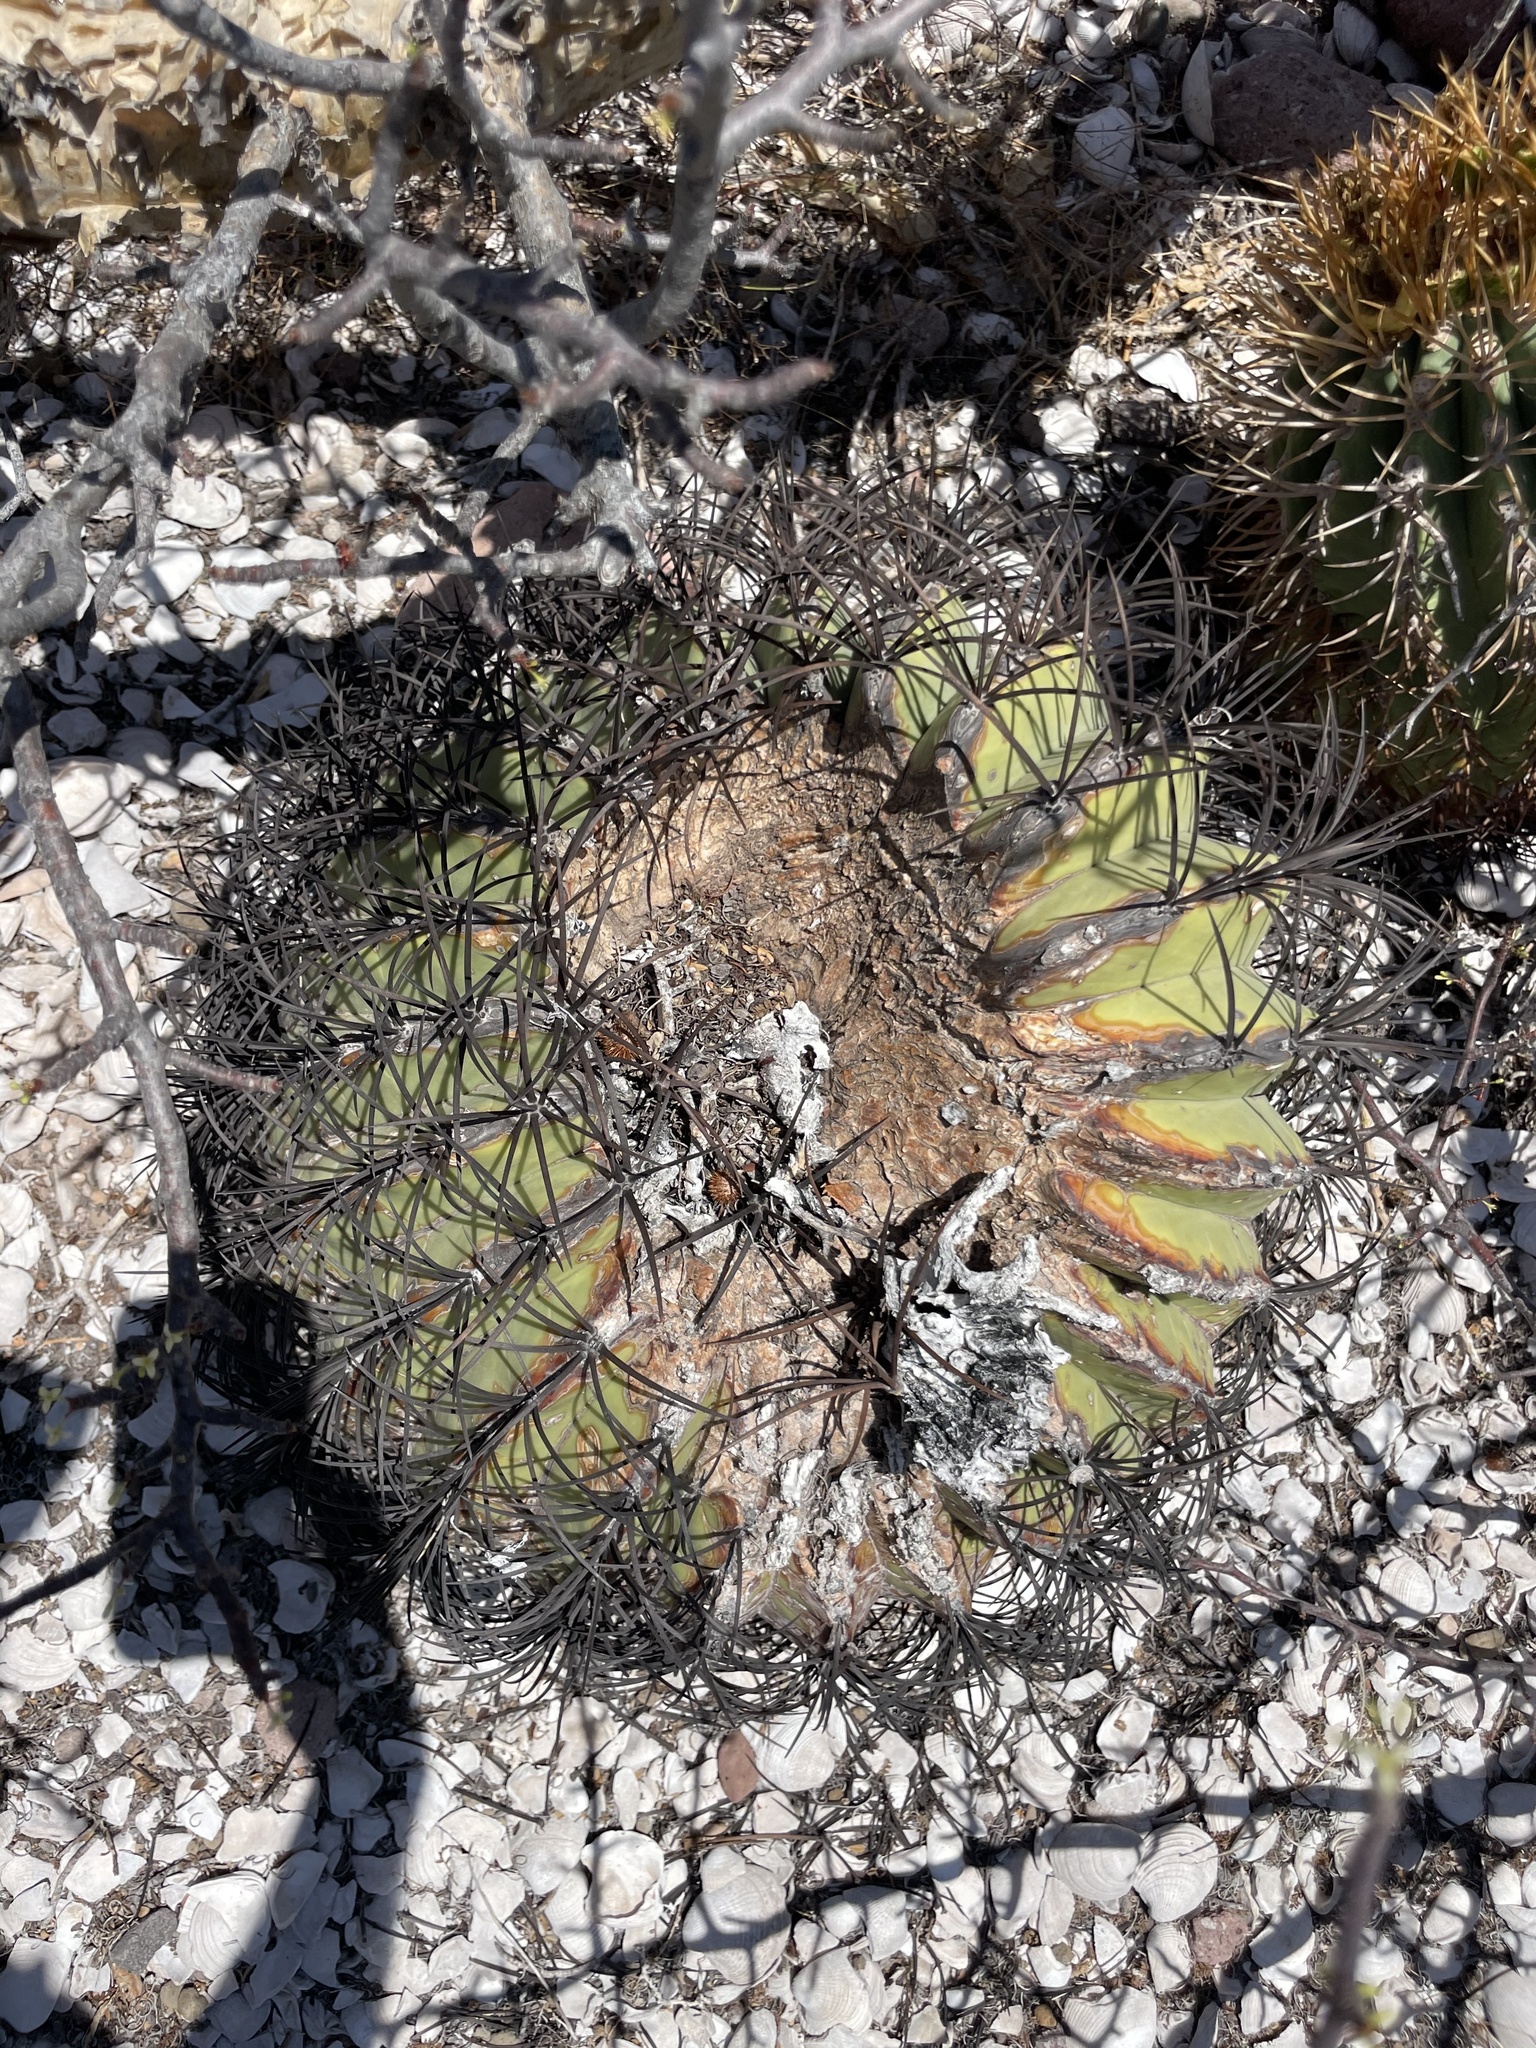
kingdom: Plantae
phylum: Tracheophyta
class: Magnoliopsida
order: Caryophyllales
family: Cactaceae
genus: Ferocactus
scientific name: Ferocactus diguetii
